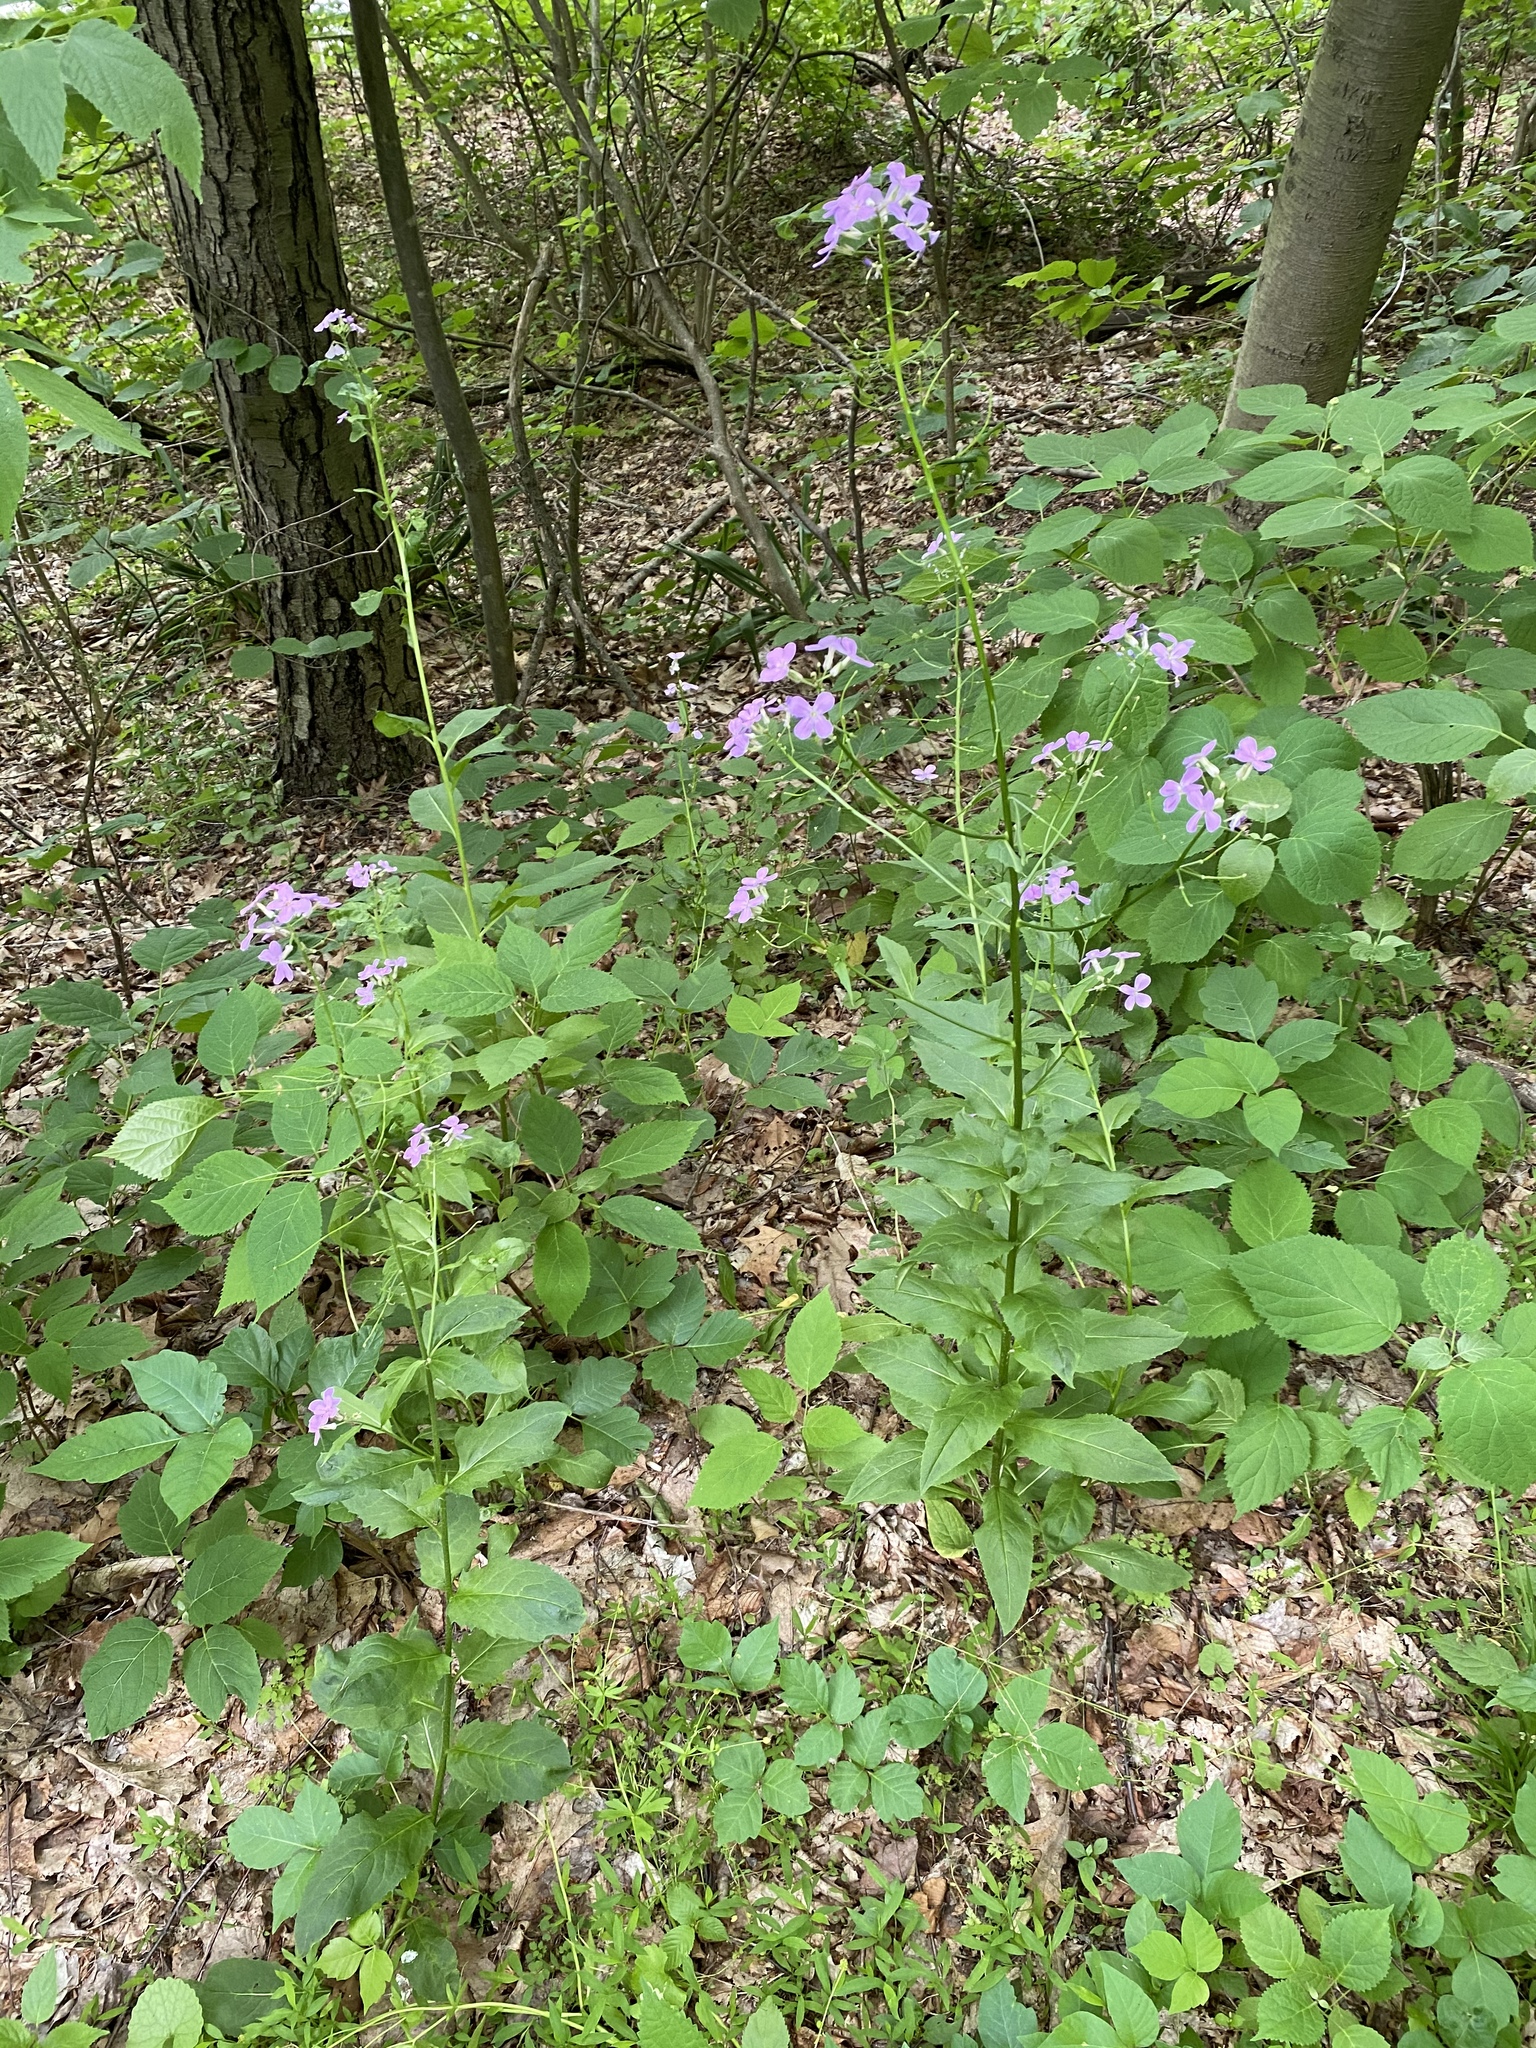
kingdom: Plantae
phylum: Tracheophyta
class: Magnoliopsida
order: Brassicales
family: Brassicaceae
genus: Hesperis
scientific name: Hesperis matronalis
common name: Dame's-violet
